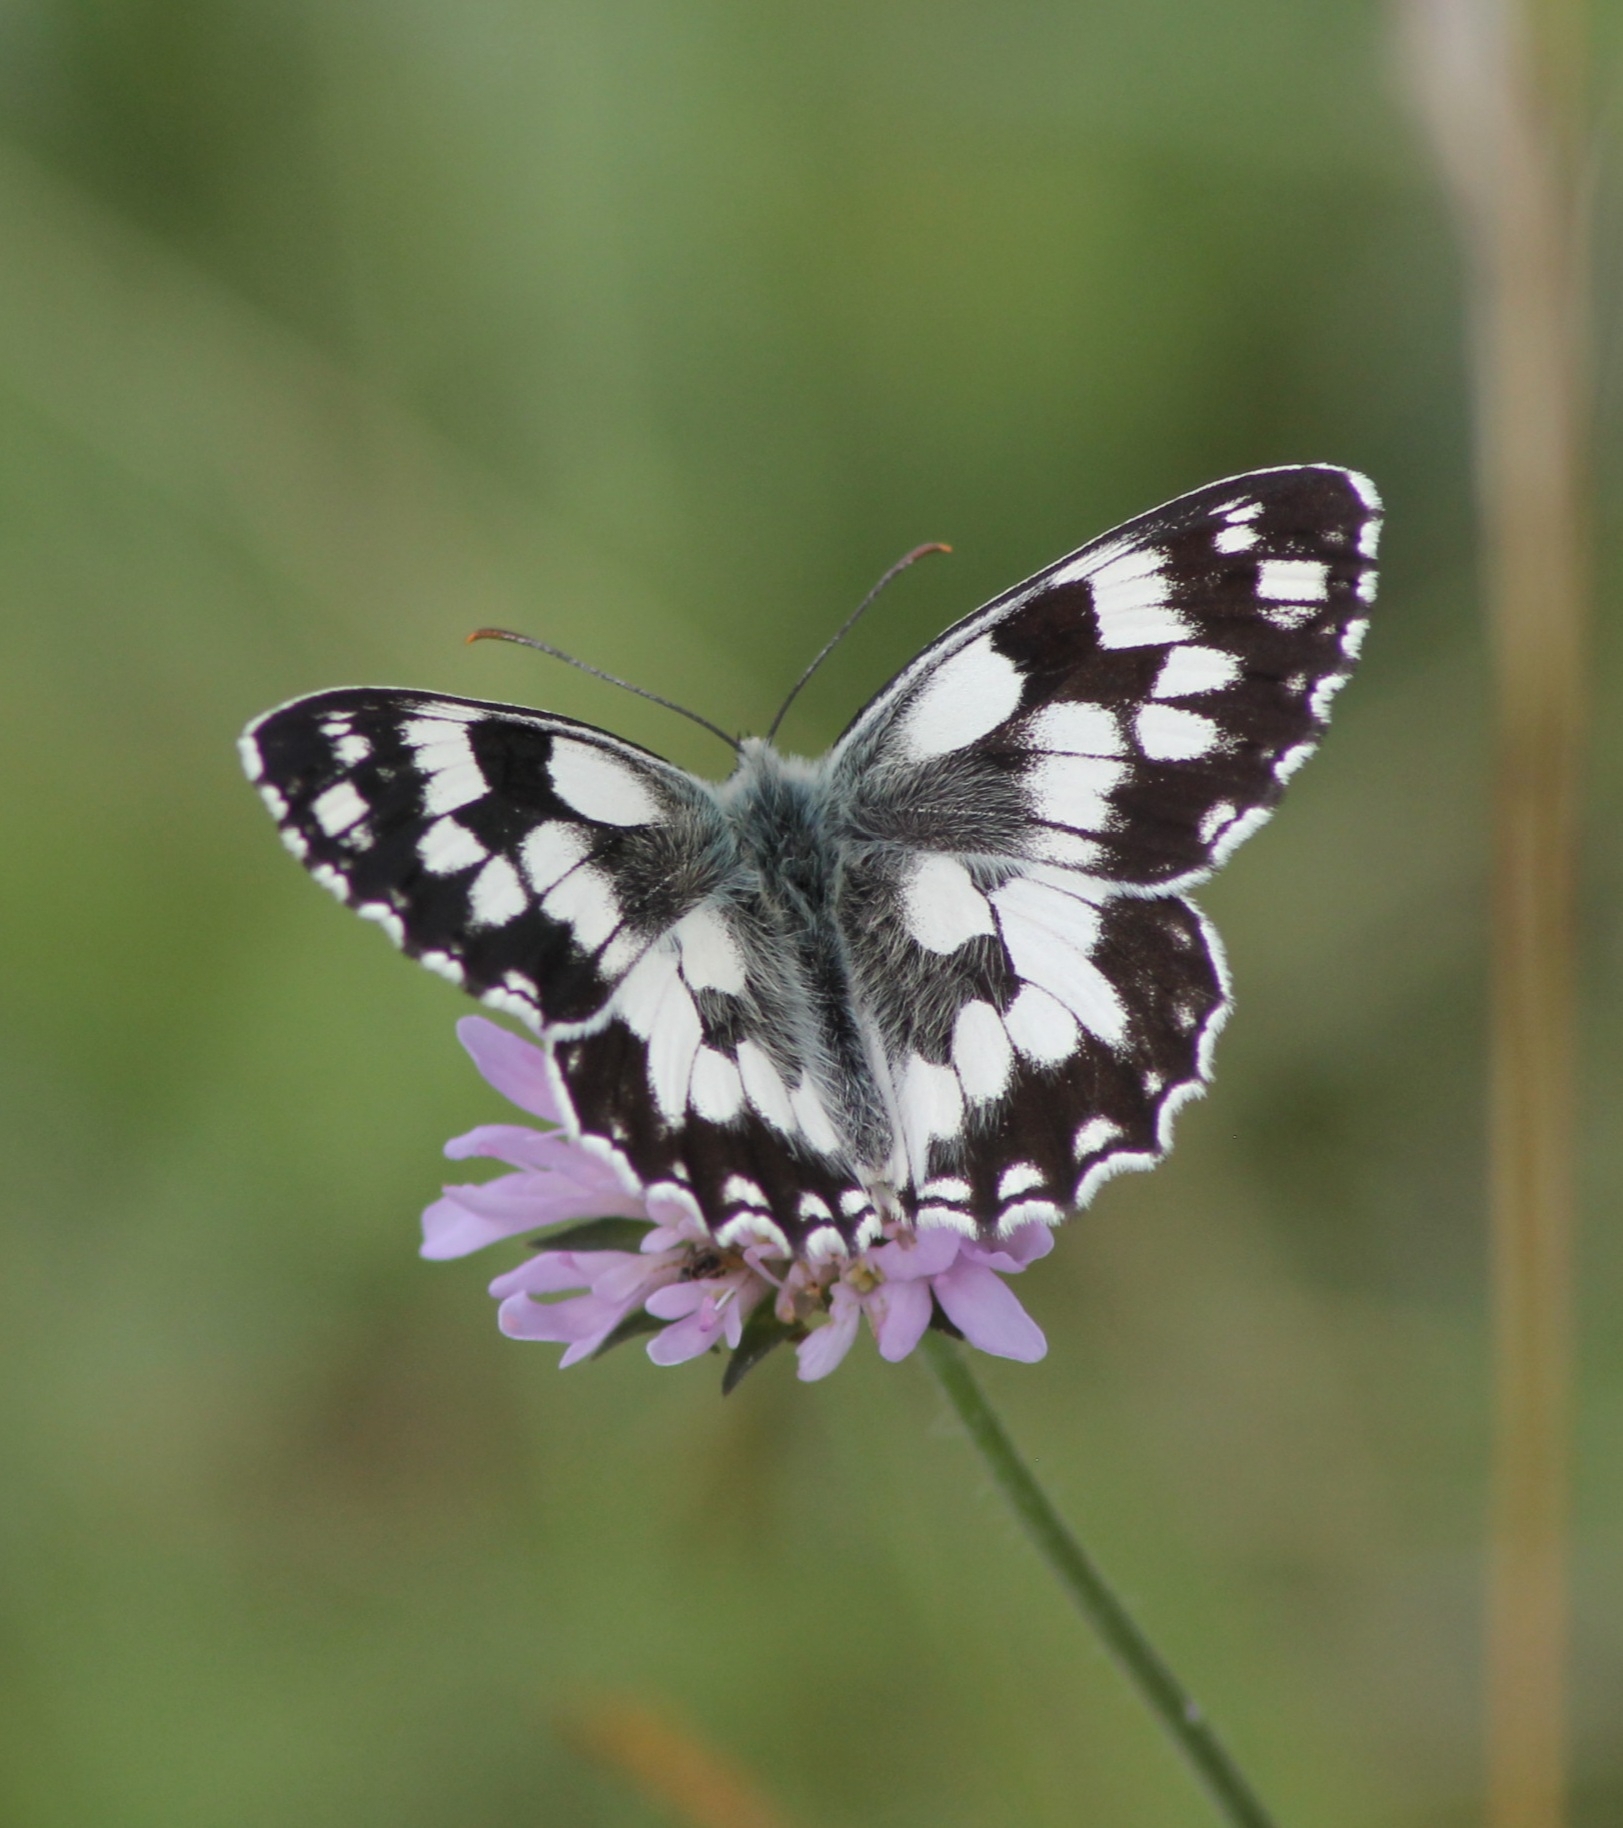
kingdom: Animalia
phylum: Arthropoda
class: Insecta
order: Lepidoptera
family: Nymphalidae
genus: Melanargia
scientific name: Melanargia galathea
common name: Marbled white
